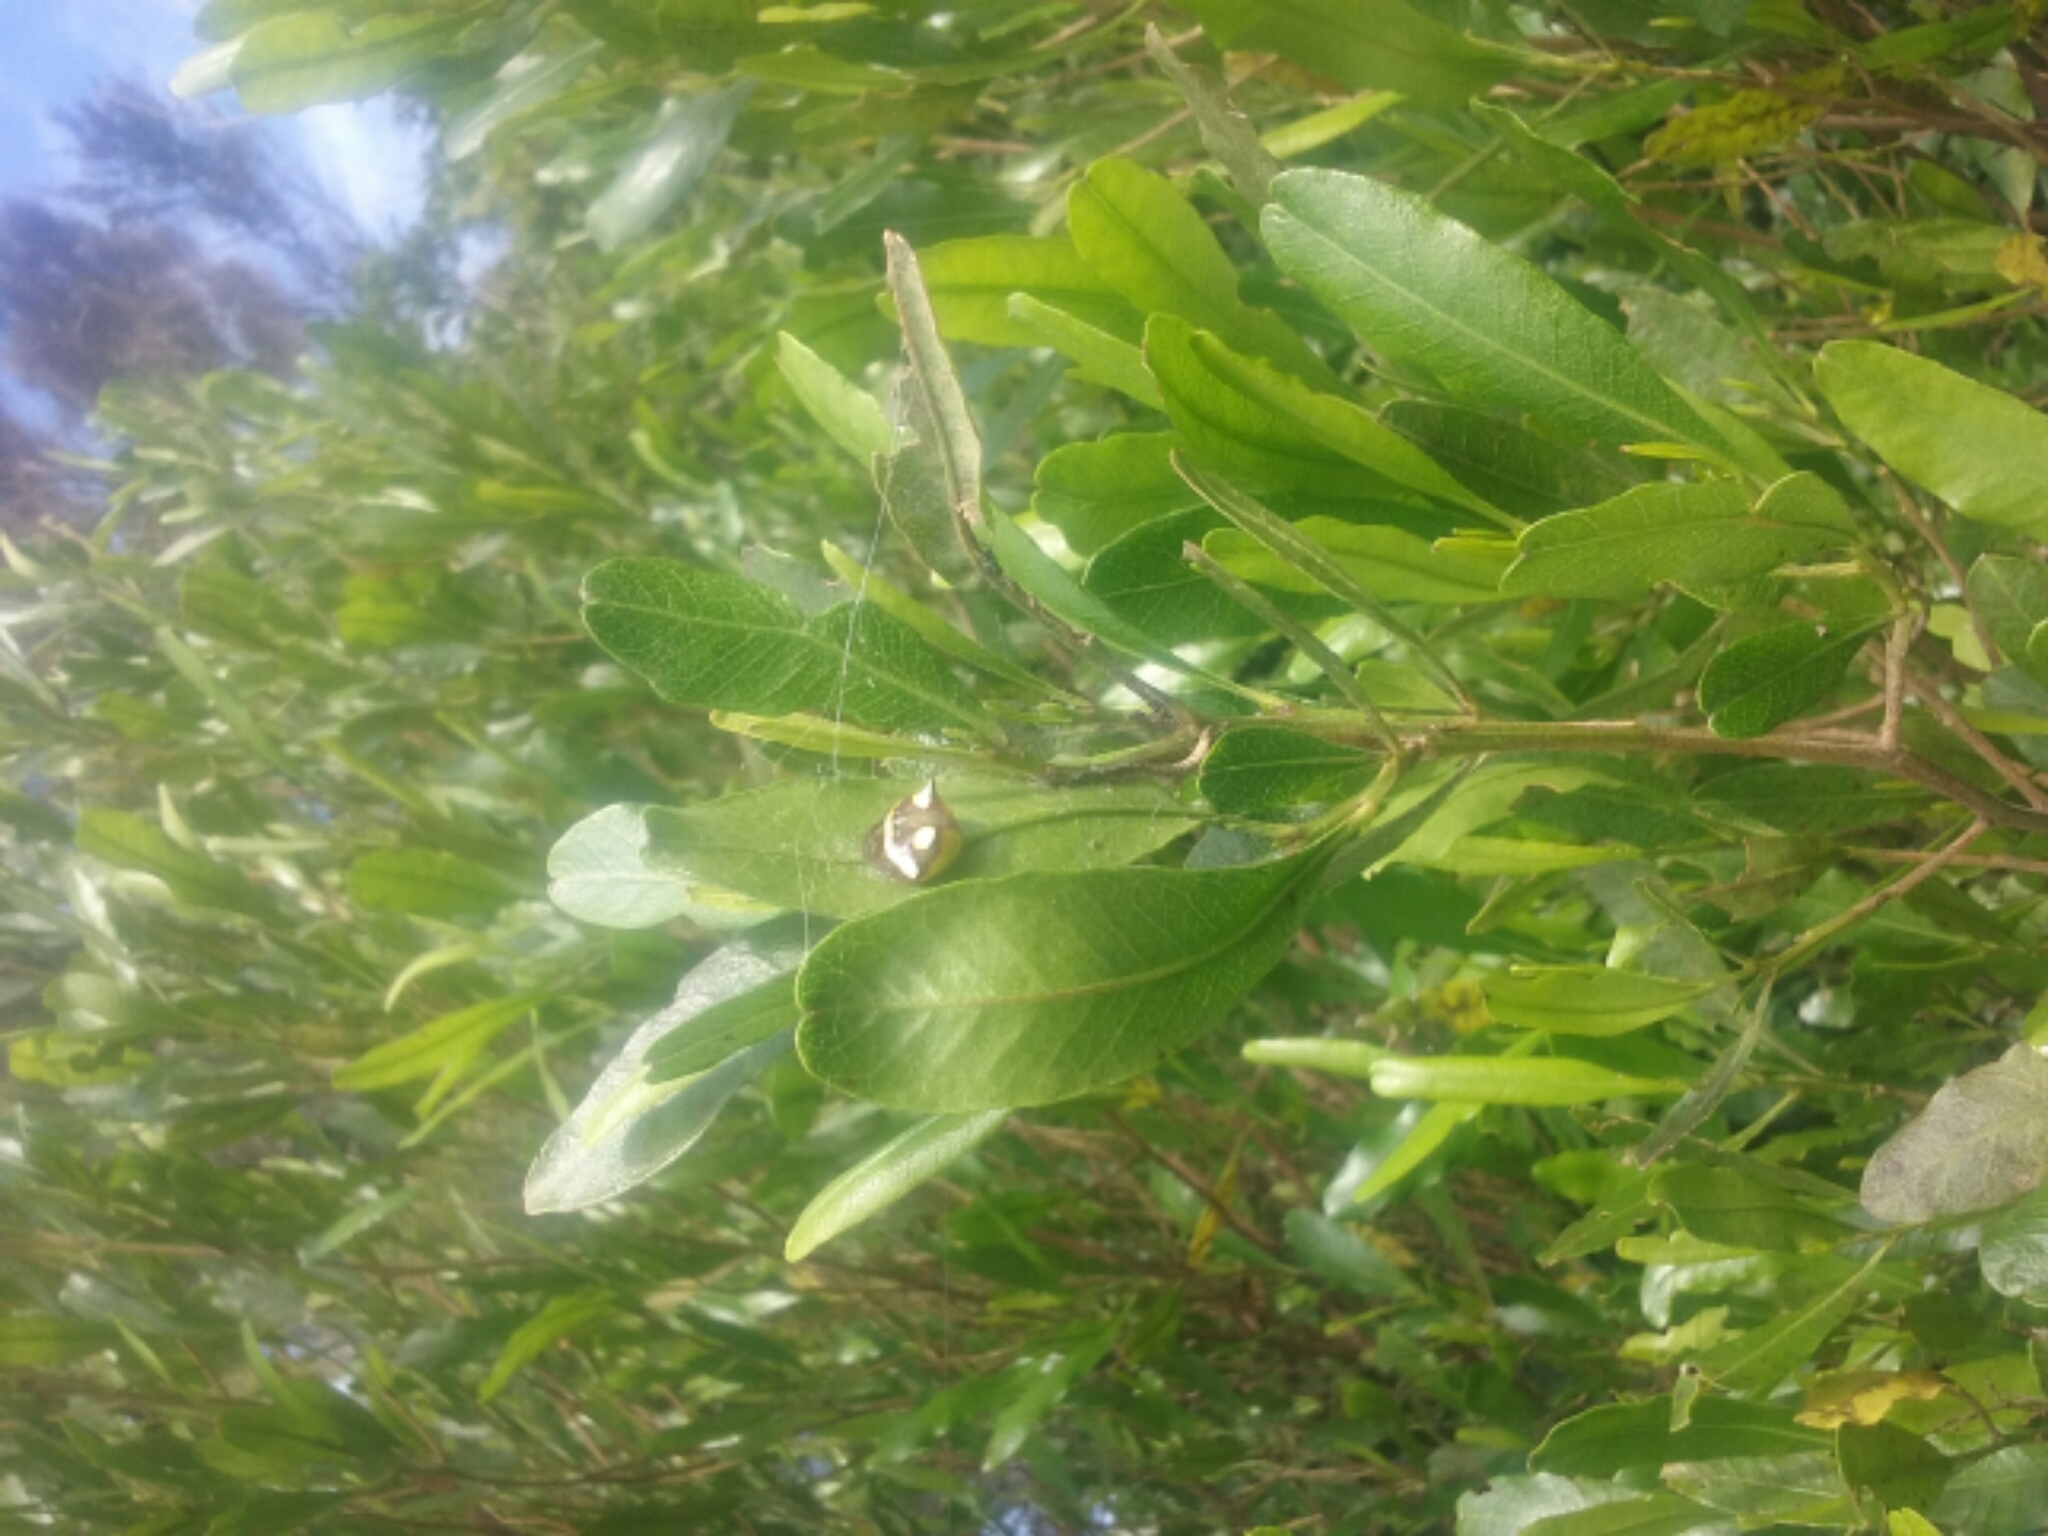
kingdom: Animalia
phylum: Arthropoda
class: Arachnida
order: Araneae
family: Araneidae
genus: Poecilopachys
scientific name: Poecilopachys australasia
